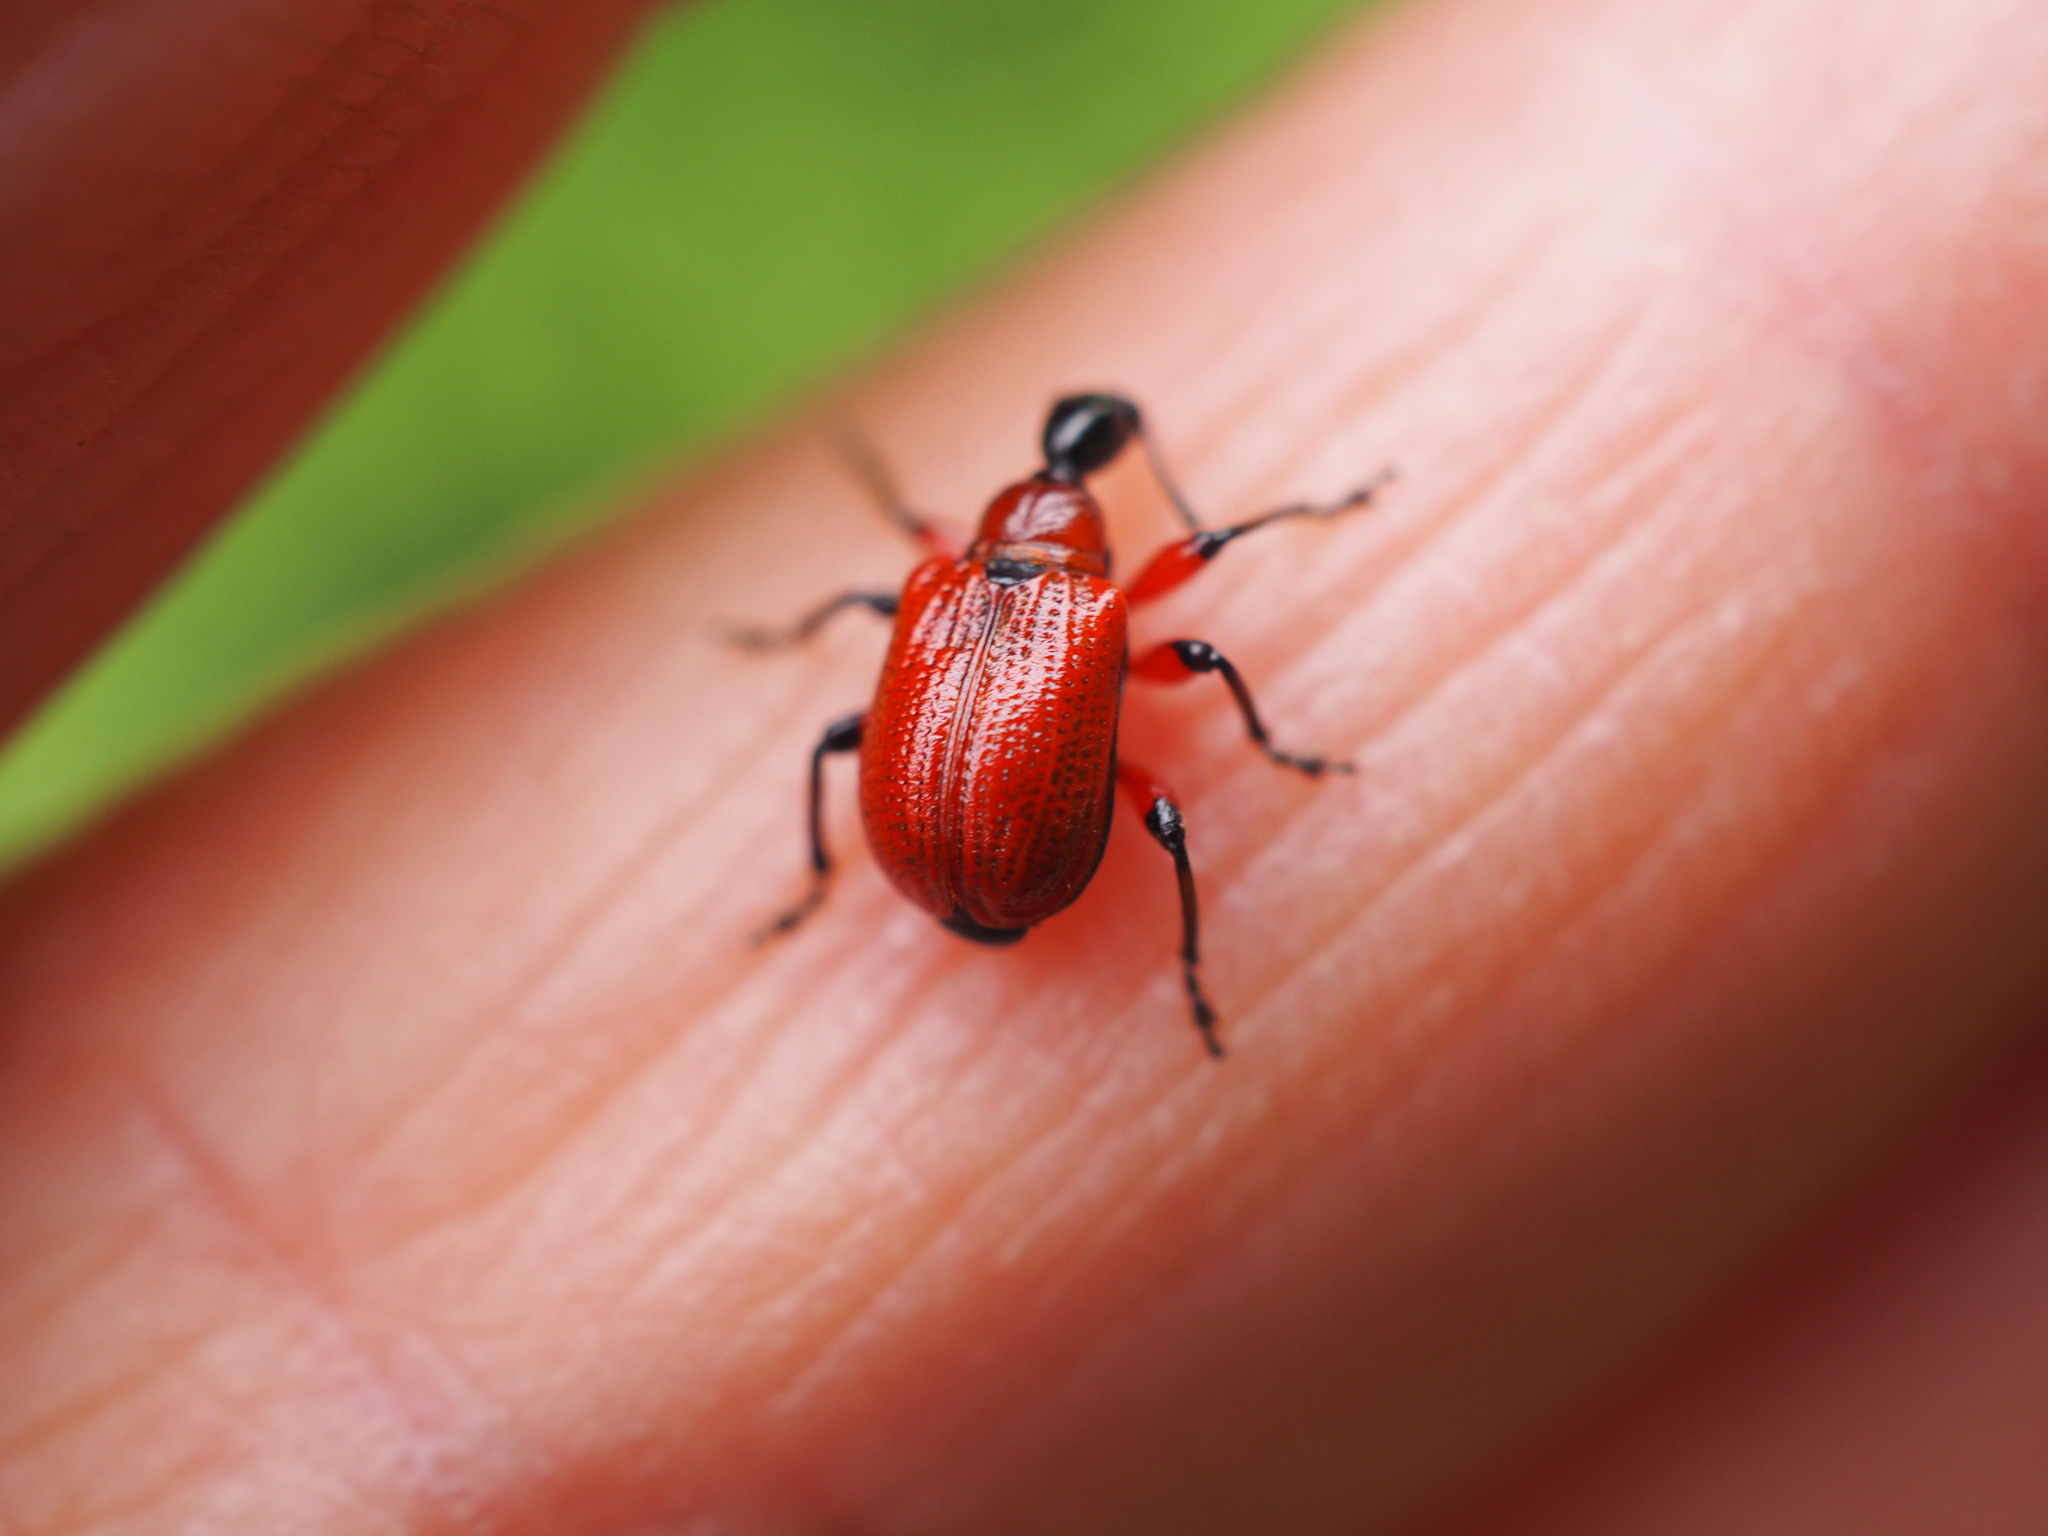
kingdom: Animalia
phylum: Arthropoda
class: Insecta
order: Coleoptera
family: Attelabidae
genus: Apoderus
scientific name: Apoderus coryli
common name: Hazel leaf roller
